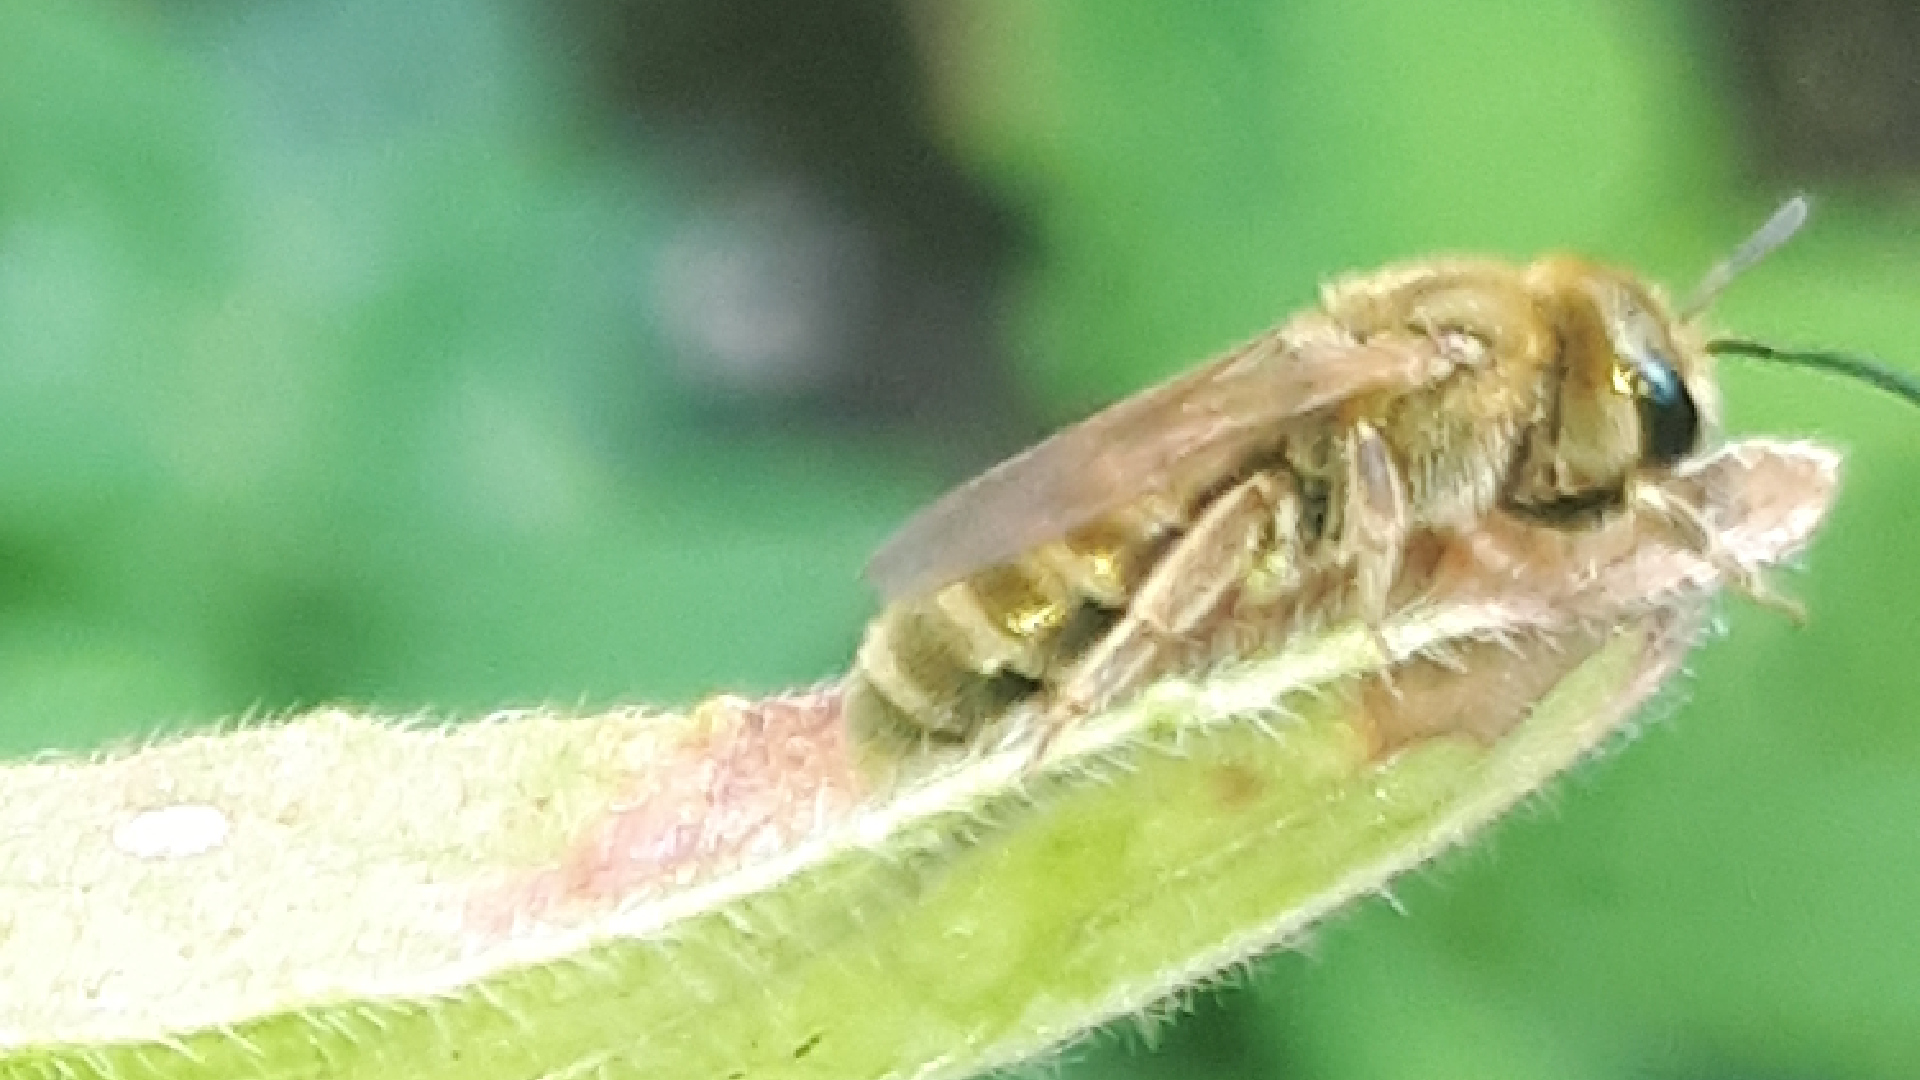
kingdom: Animalia
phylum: Arthropoda
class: Insecta
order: Hymenoptera
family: Halictidae
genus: Halictus
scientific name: Halictus subauratus
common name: Golden furrow bee
